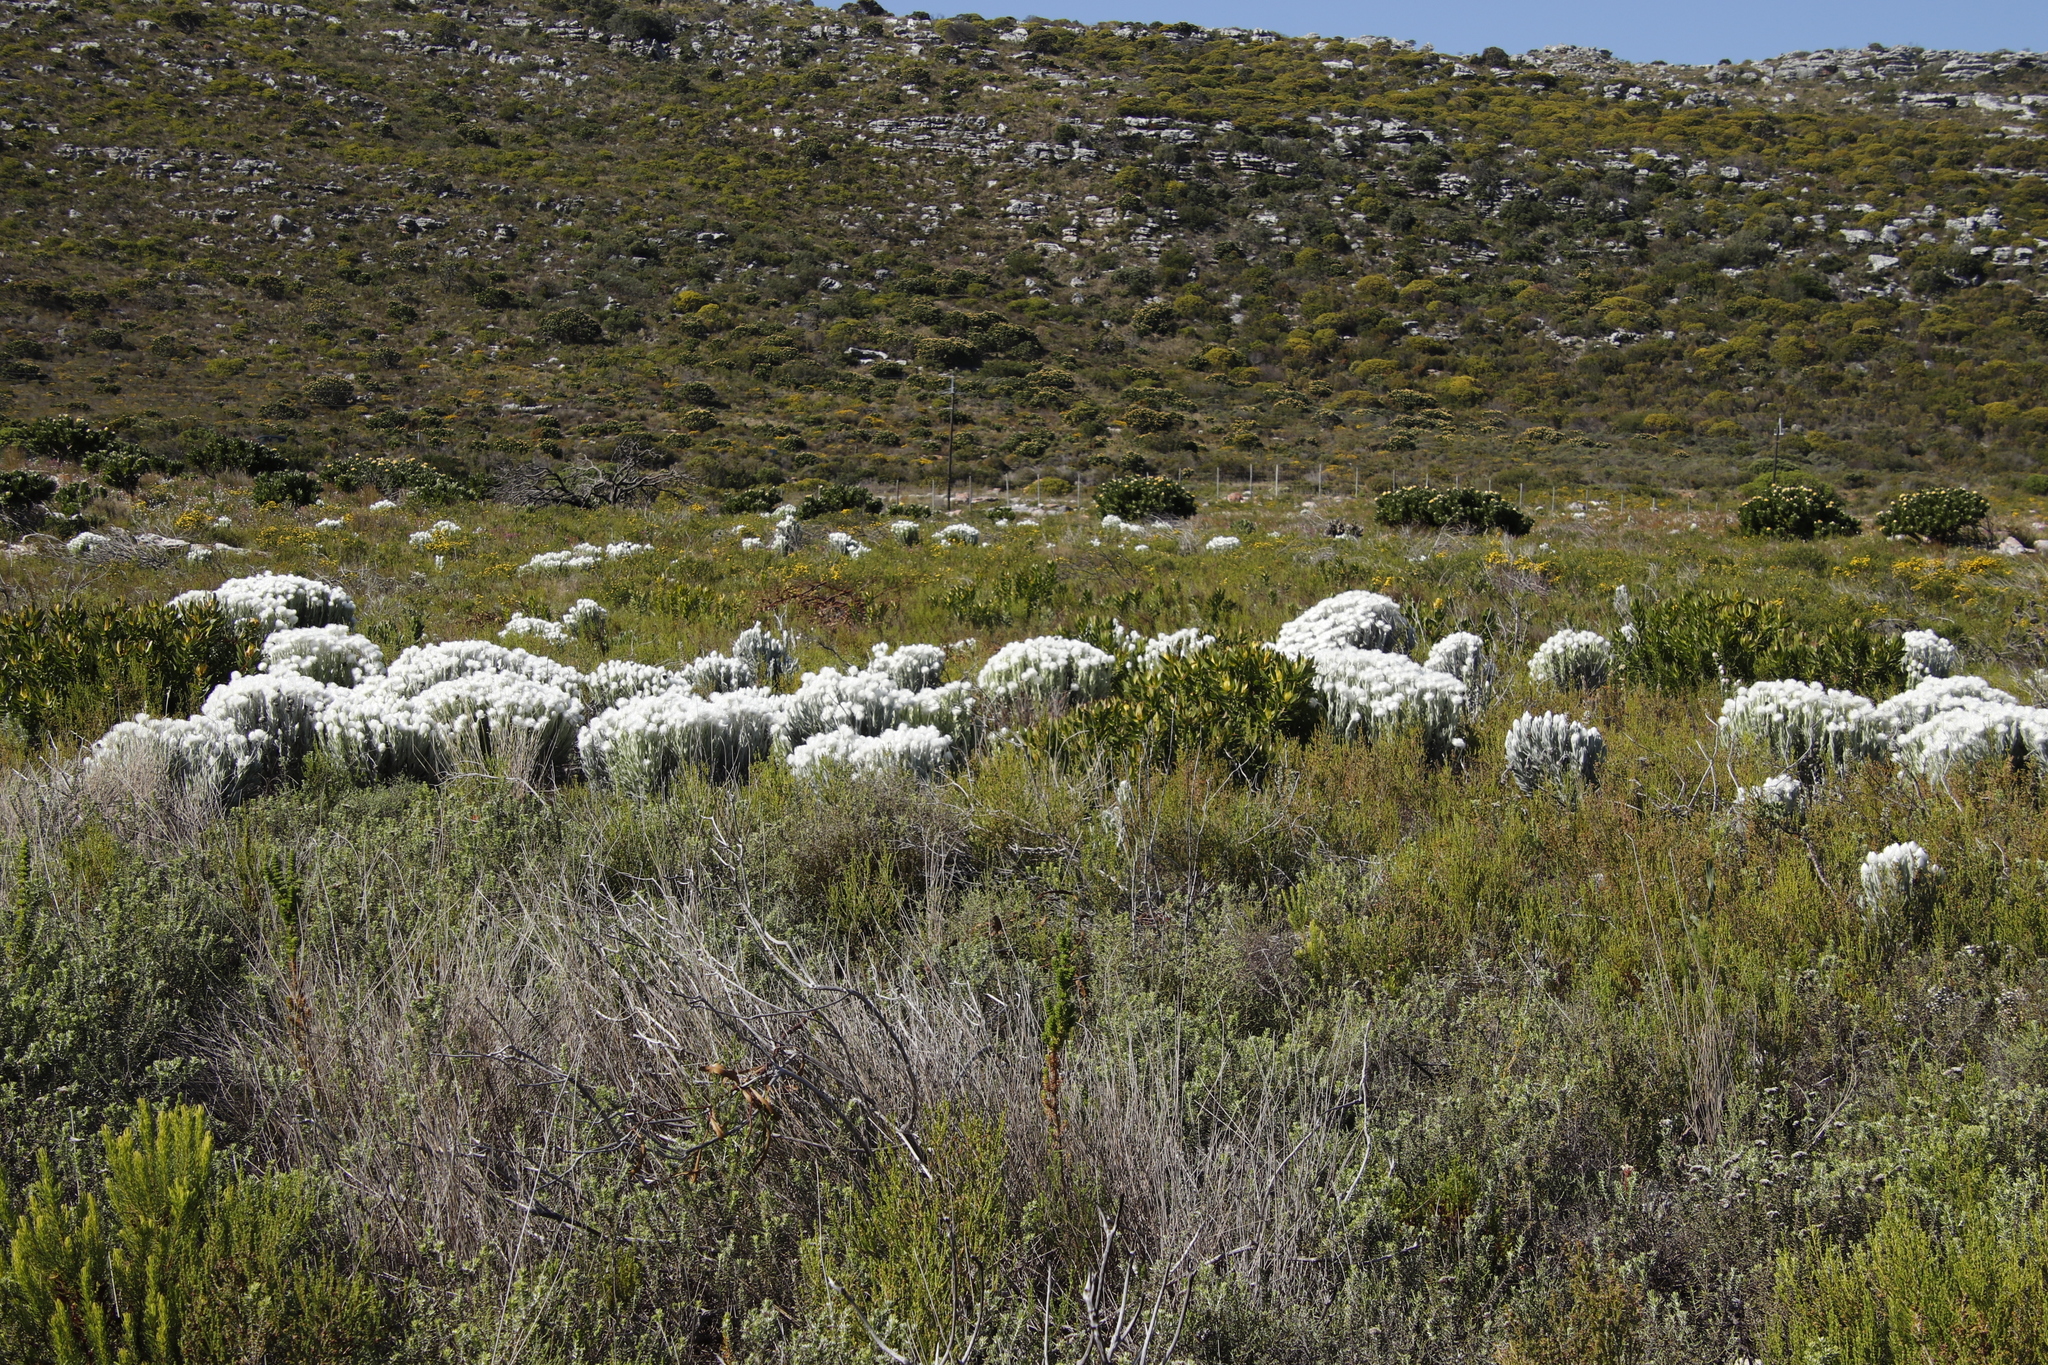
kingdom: Plantae
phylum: Tracheophyta
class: Magnoliopsida
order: Asterales
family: Asteraceae
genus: Syncarpha
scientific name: Syncarpha vestita
